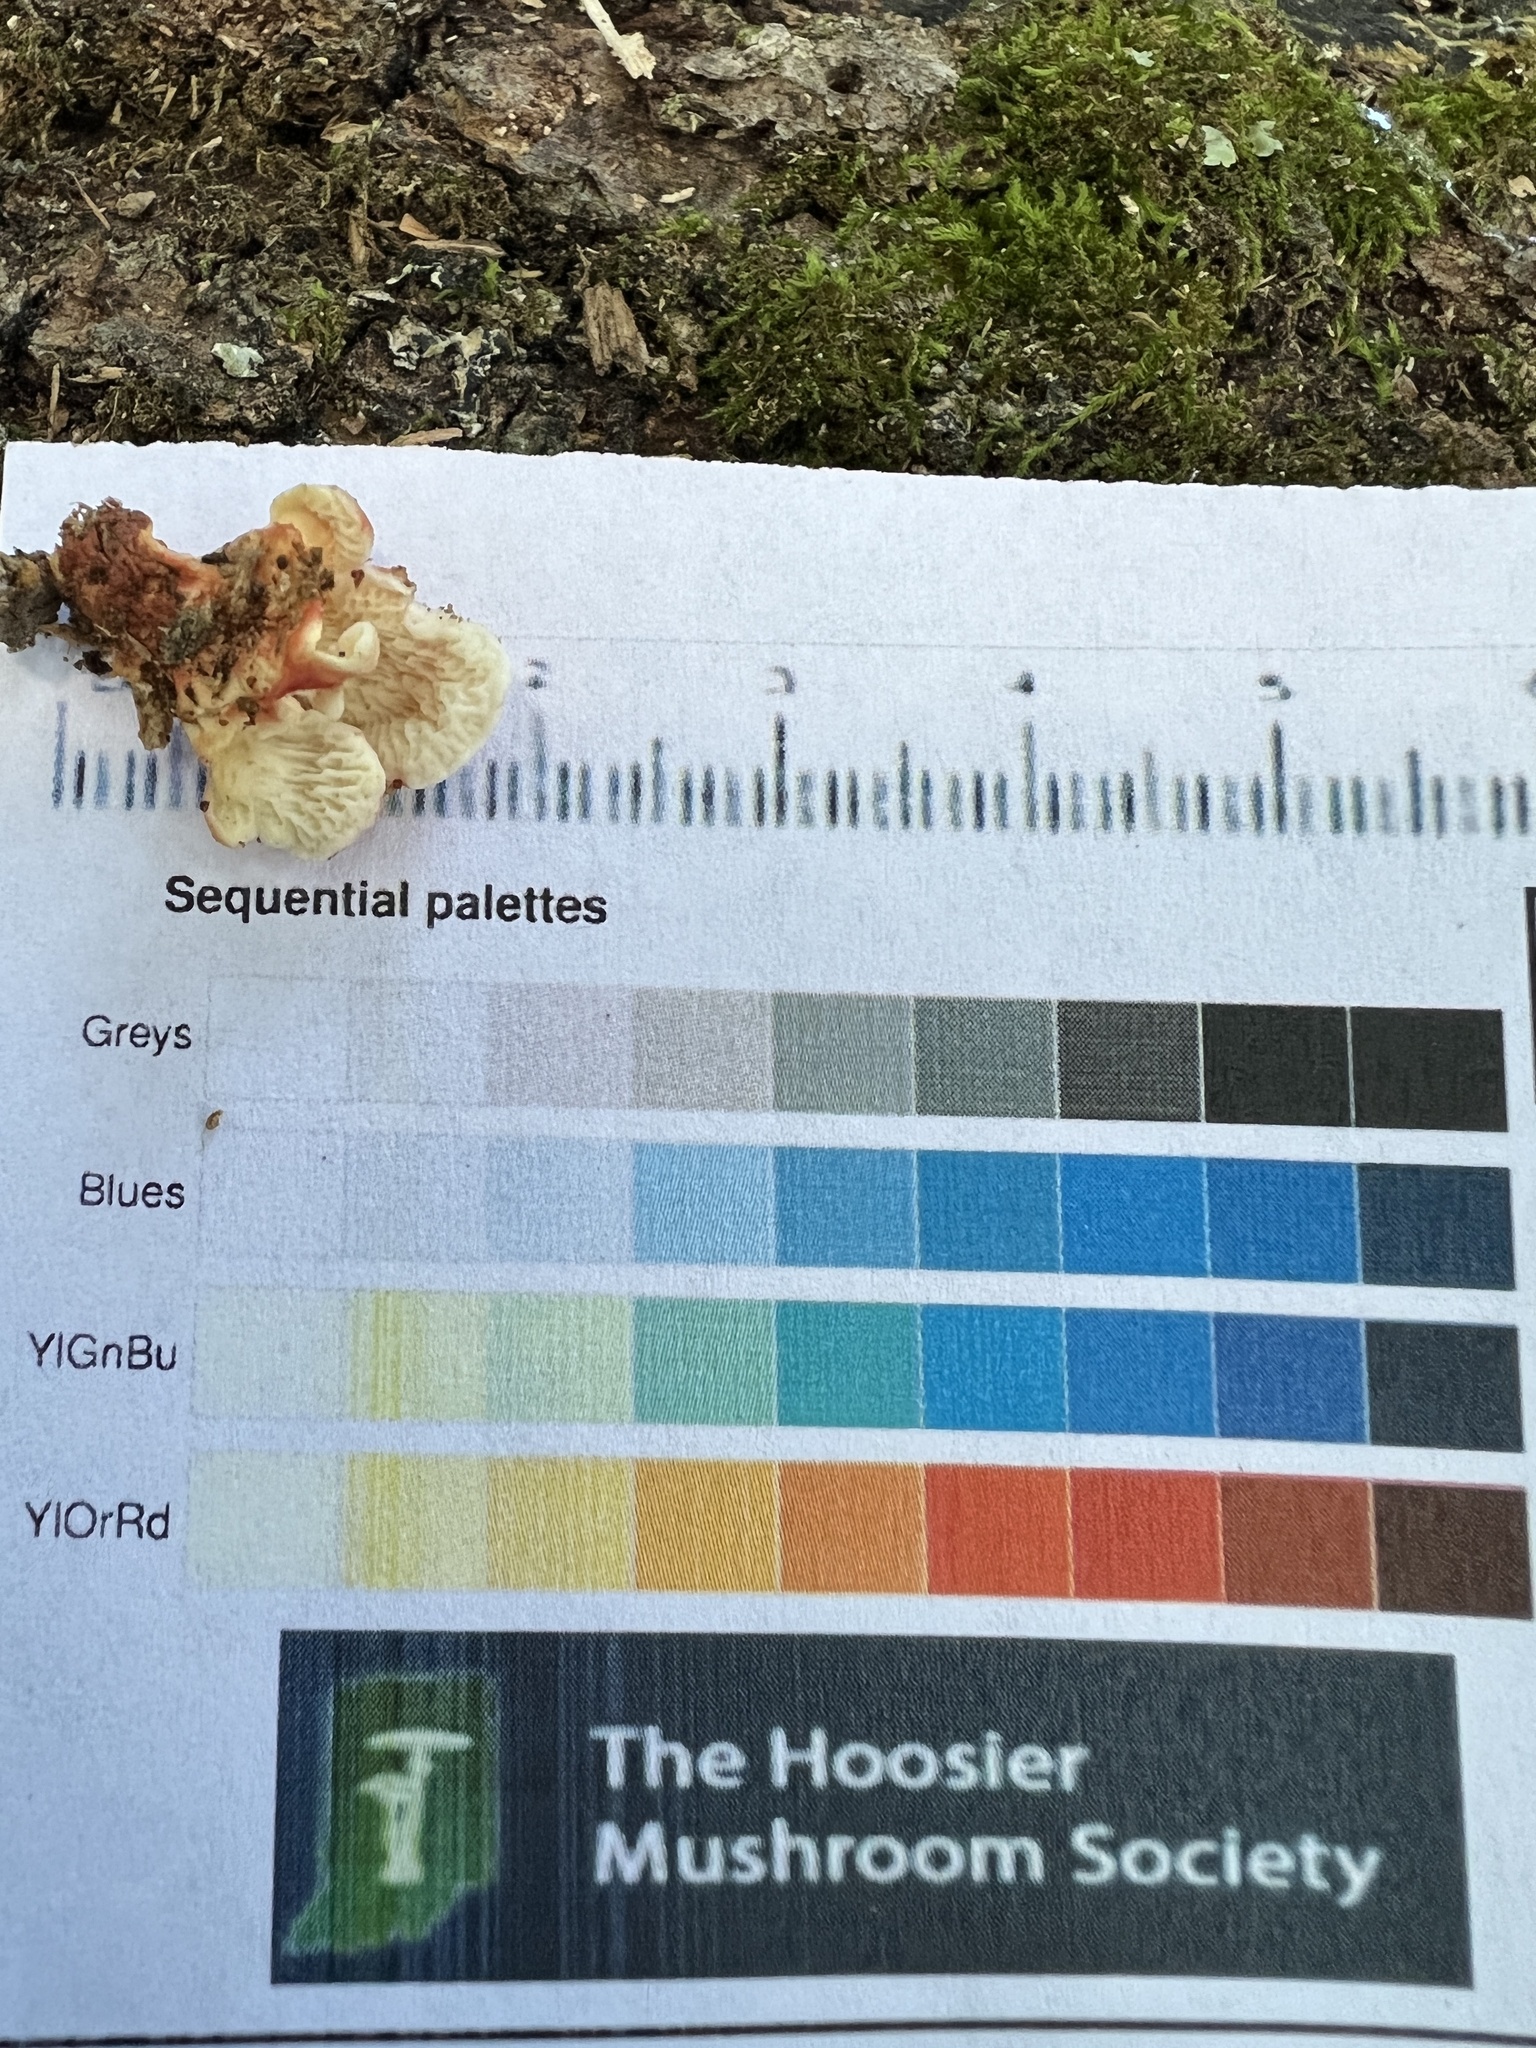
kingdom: Fungi
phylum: Basidiomycota
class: Agaricomycetes
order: Polyporales
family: Irpicaceae
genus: Byssomerulius
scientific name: Byssomerulius incarnatus
